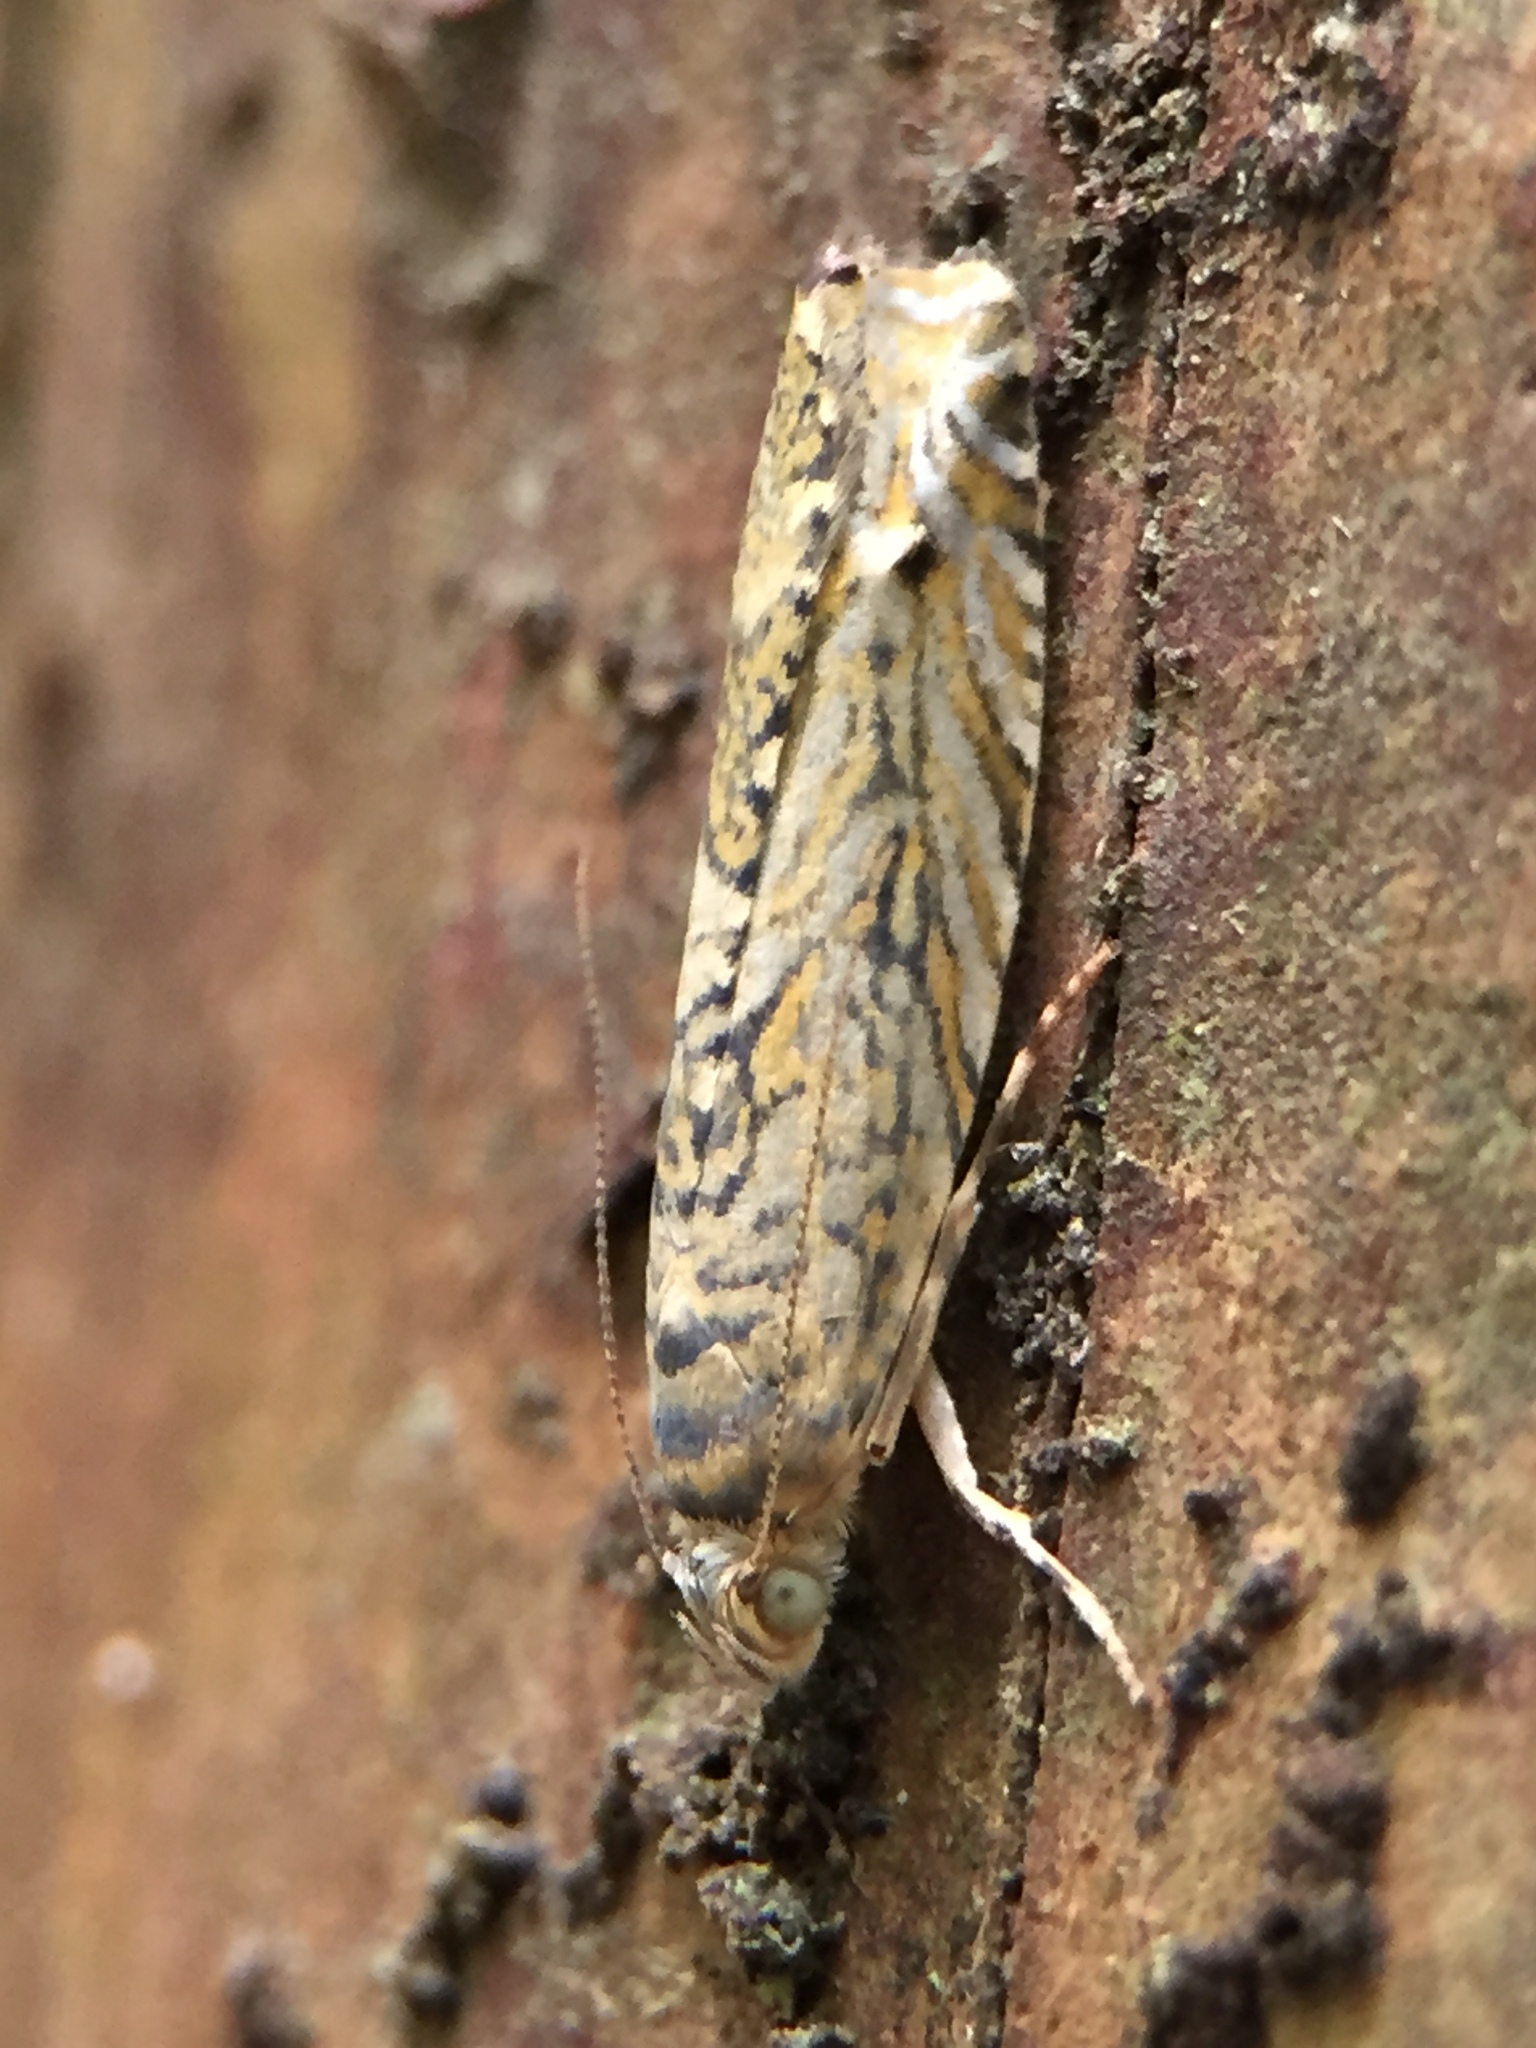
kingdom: Animalia
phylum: Arthropoda
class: Insecta
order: Lepidoptera
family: Plutellidae
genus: Doxophyrtis
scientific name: Doxophyrtis hydrocosma
